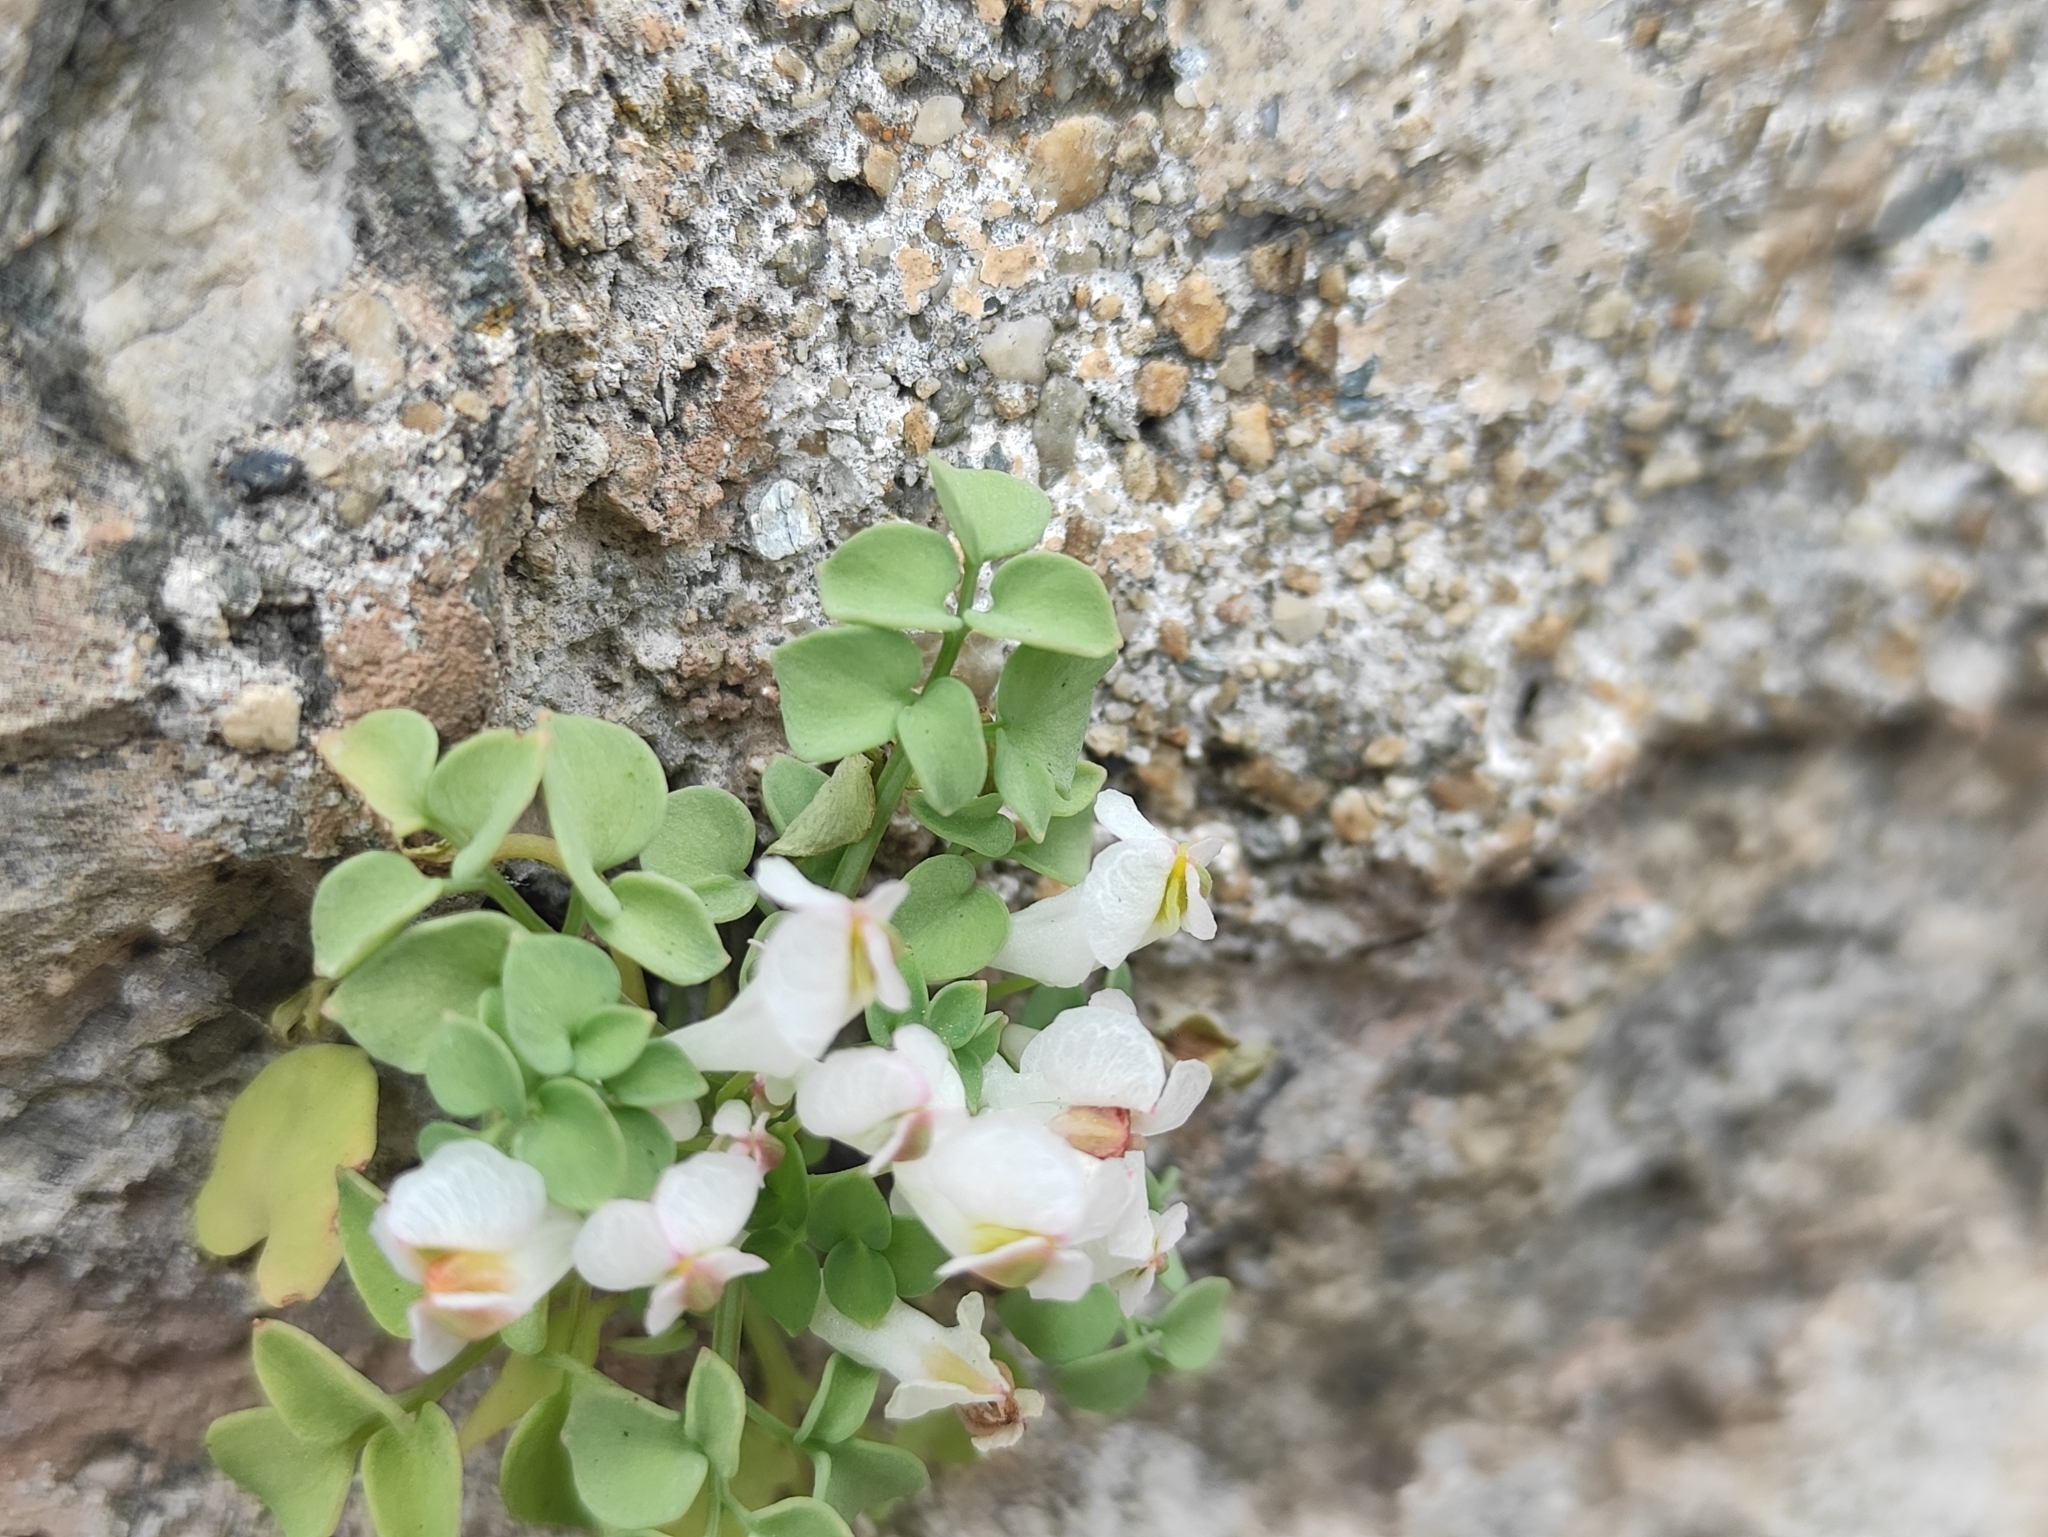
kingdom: Plantae
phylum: Tracheophyta
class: Magnoliopsida
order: Ranunculales
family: Papaveraceae
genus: Sarcocapnos
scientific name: Sarcocapnos enneaphylla
